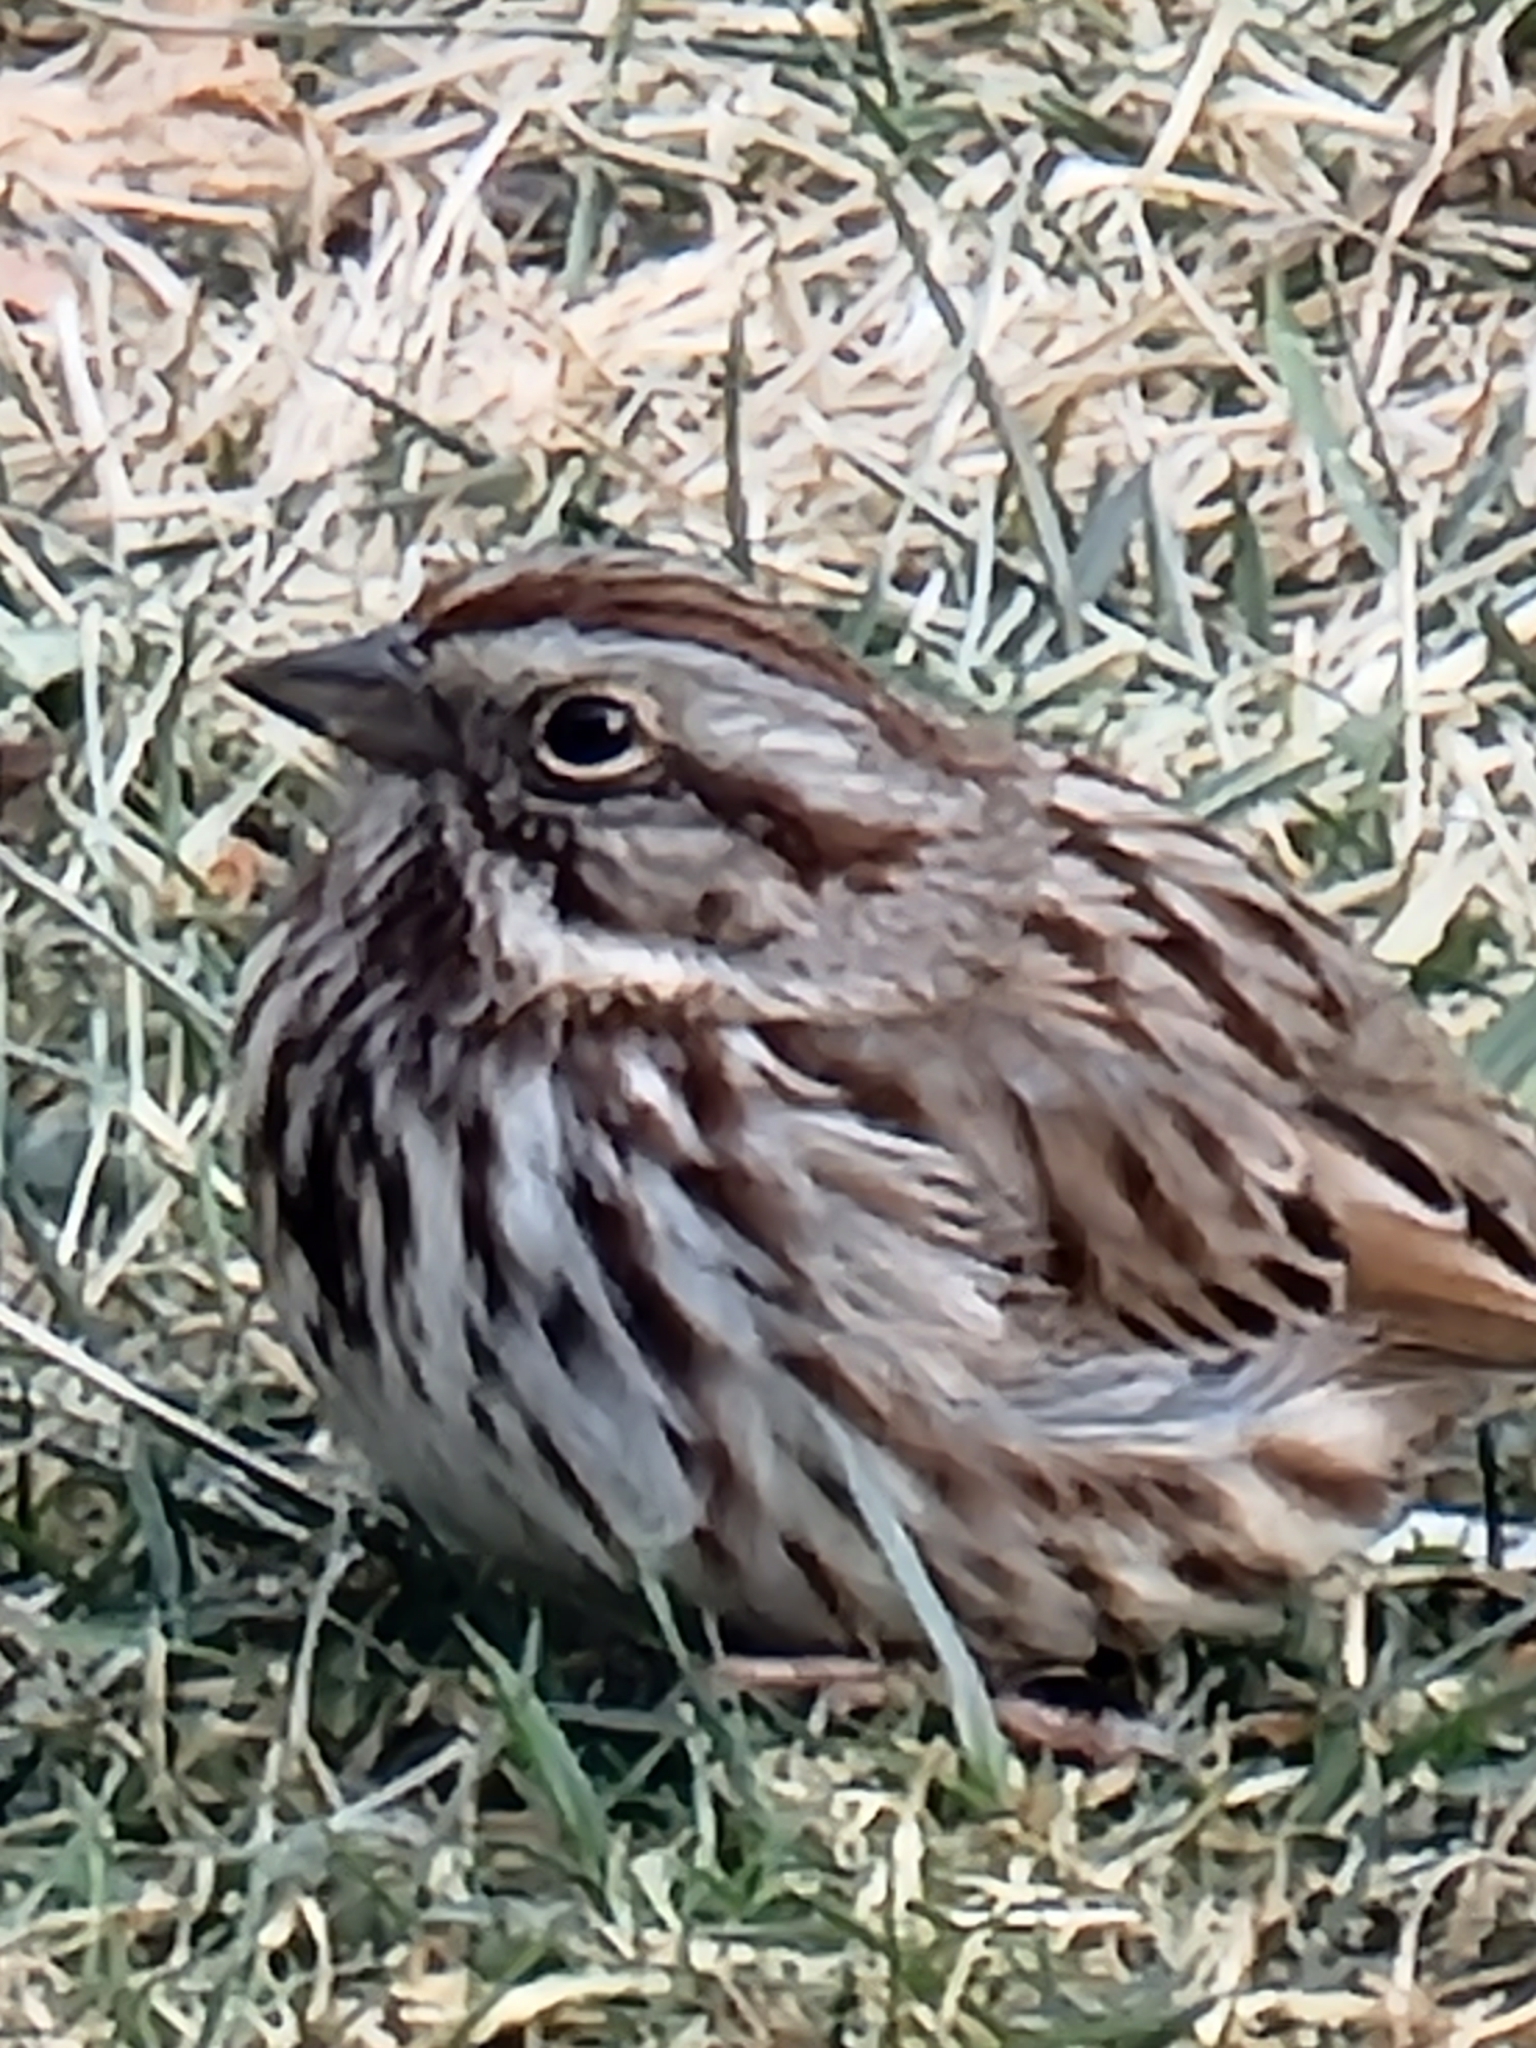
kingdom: Animalia
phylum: Chordata
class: Aves
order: Passeriformes
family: Passerellidae
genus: Melospiza
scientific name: Melospiza melodia
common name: Song sparrow
